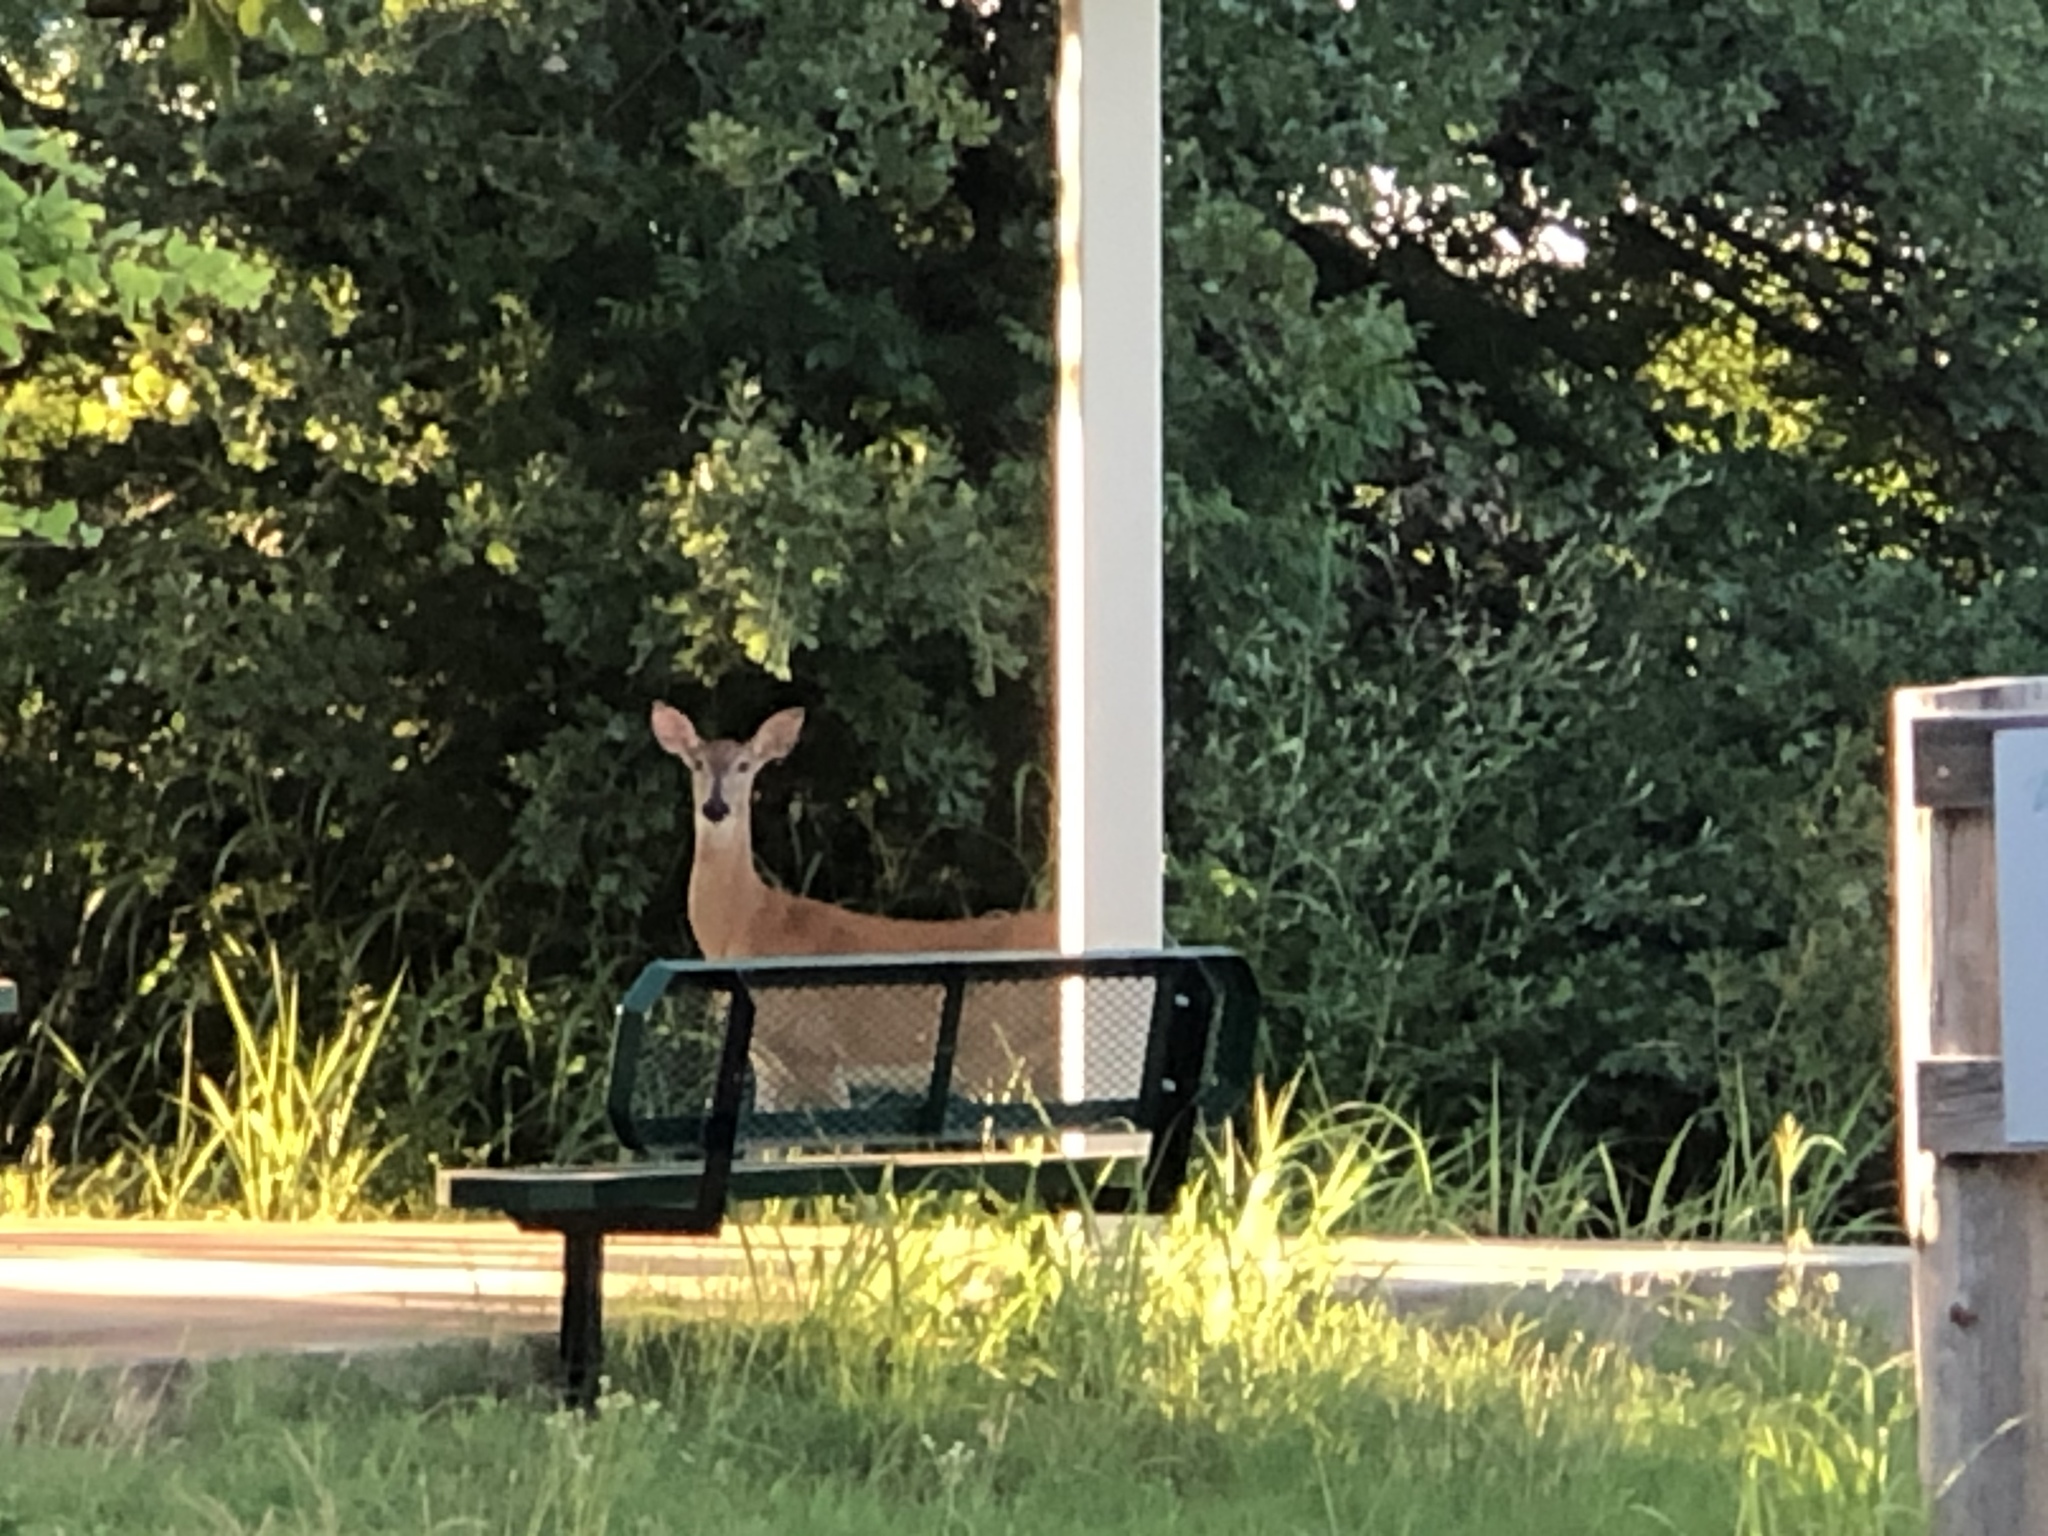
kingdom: Animalia
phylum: Chordata
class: Mammalia
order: Artiodactyla
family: Cervidae
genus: Odocoileus
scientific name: Odocoileus virginianus
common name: White-tailed deer
